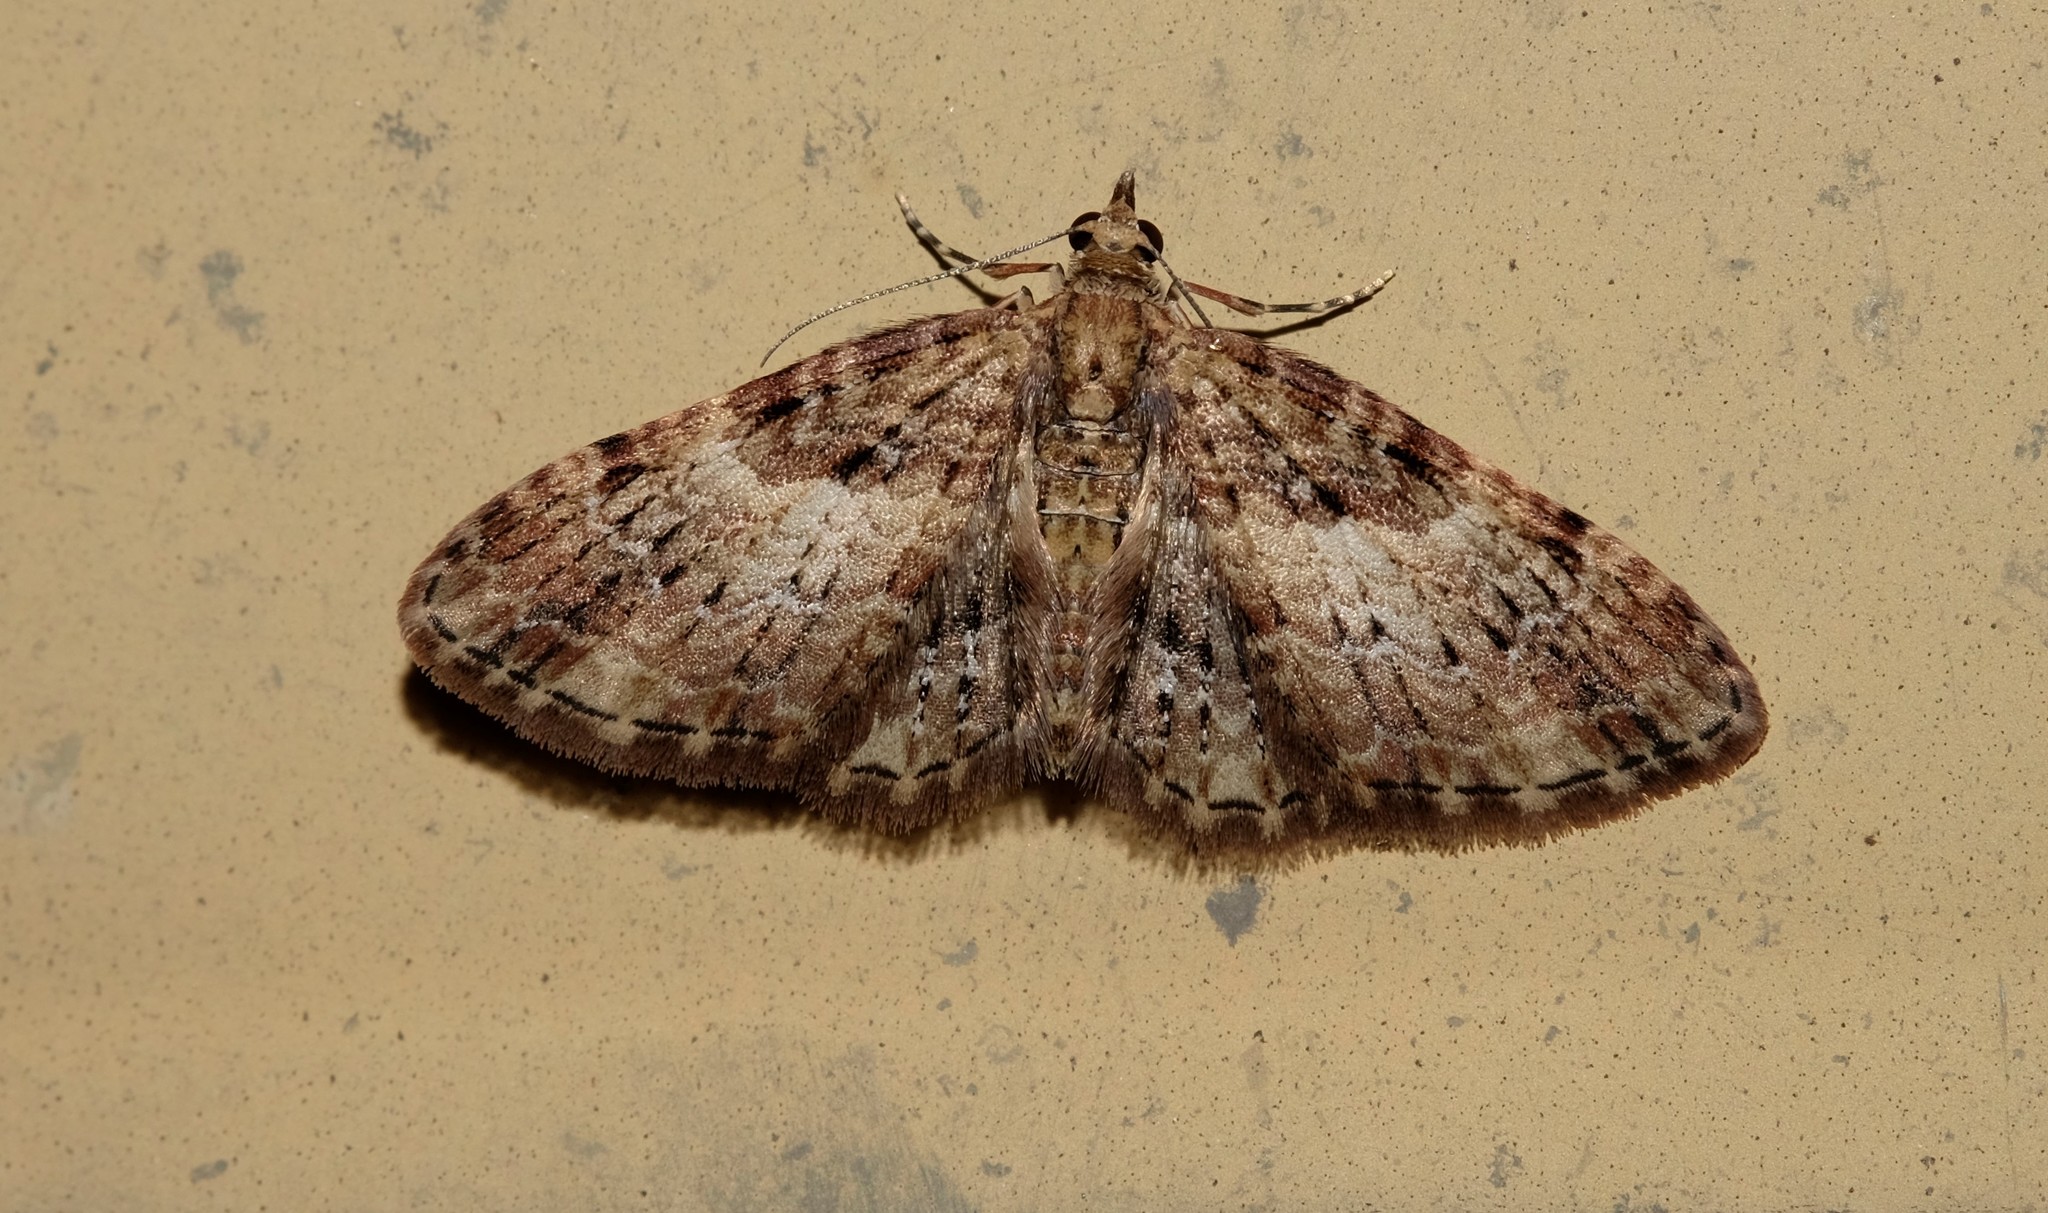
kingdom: Animalia
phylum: Arthropoda
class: Insecta
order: Lepidoptera
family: Geometridae
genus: Chloroclystis
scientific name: Chloroclystis approximata
